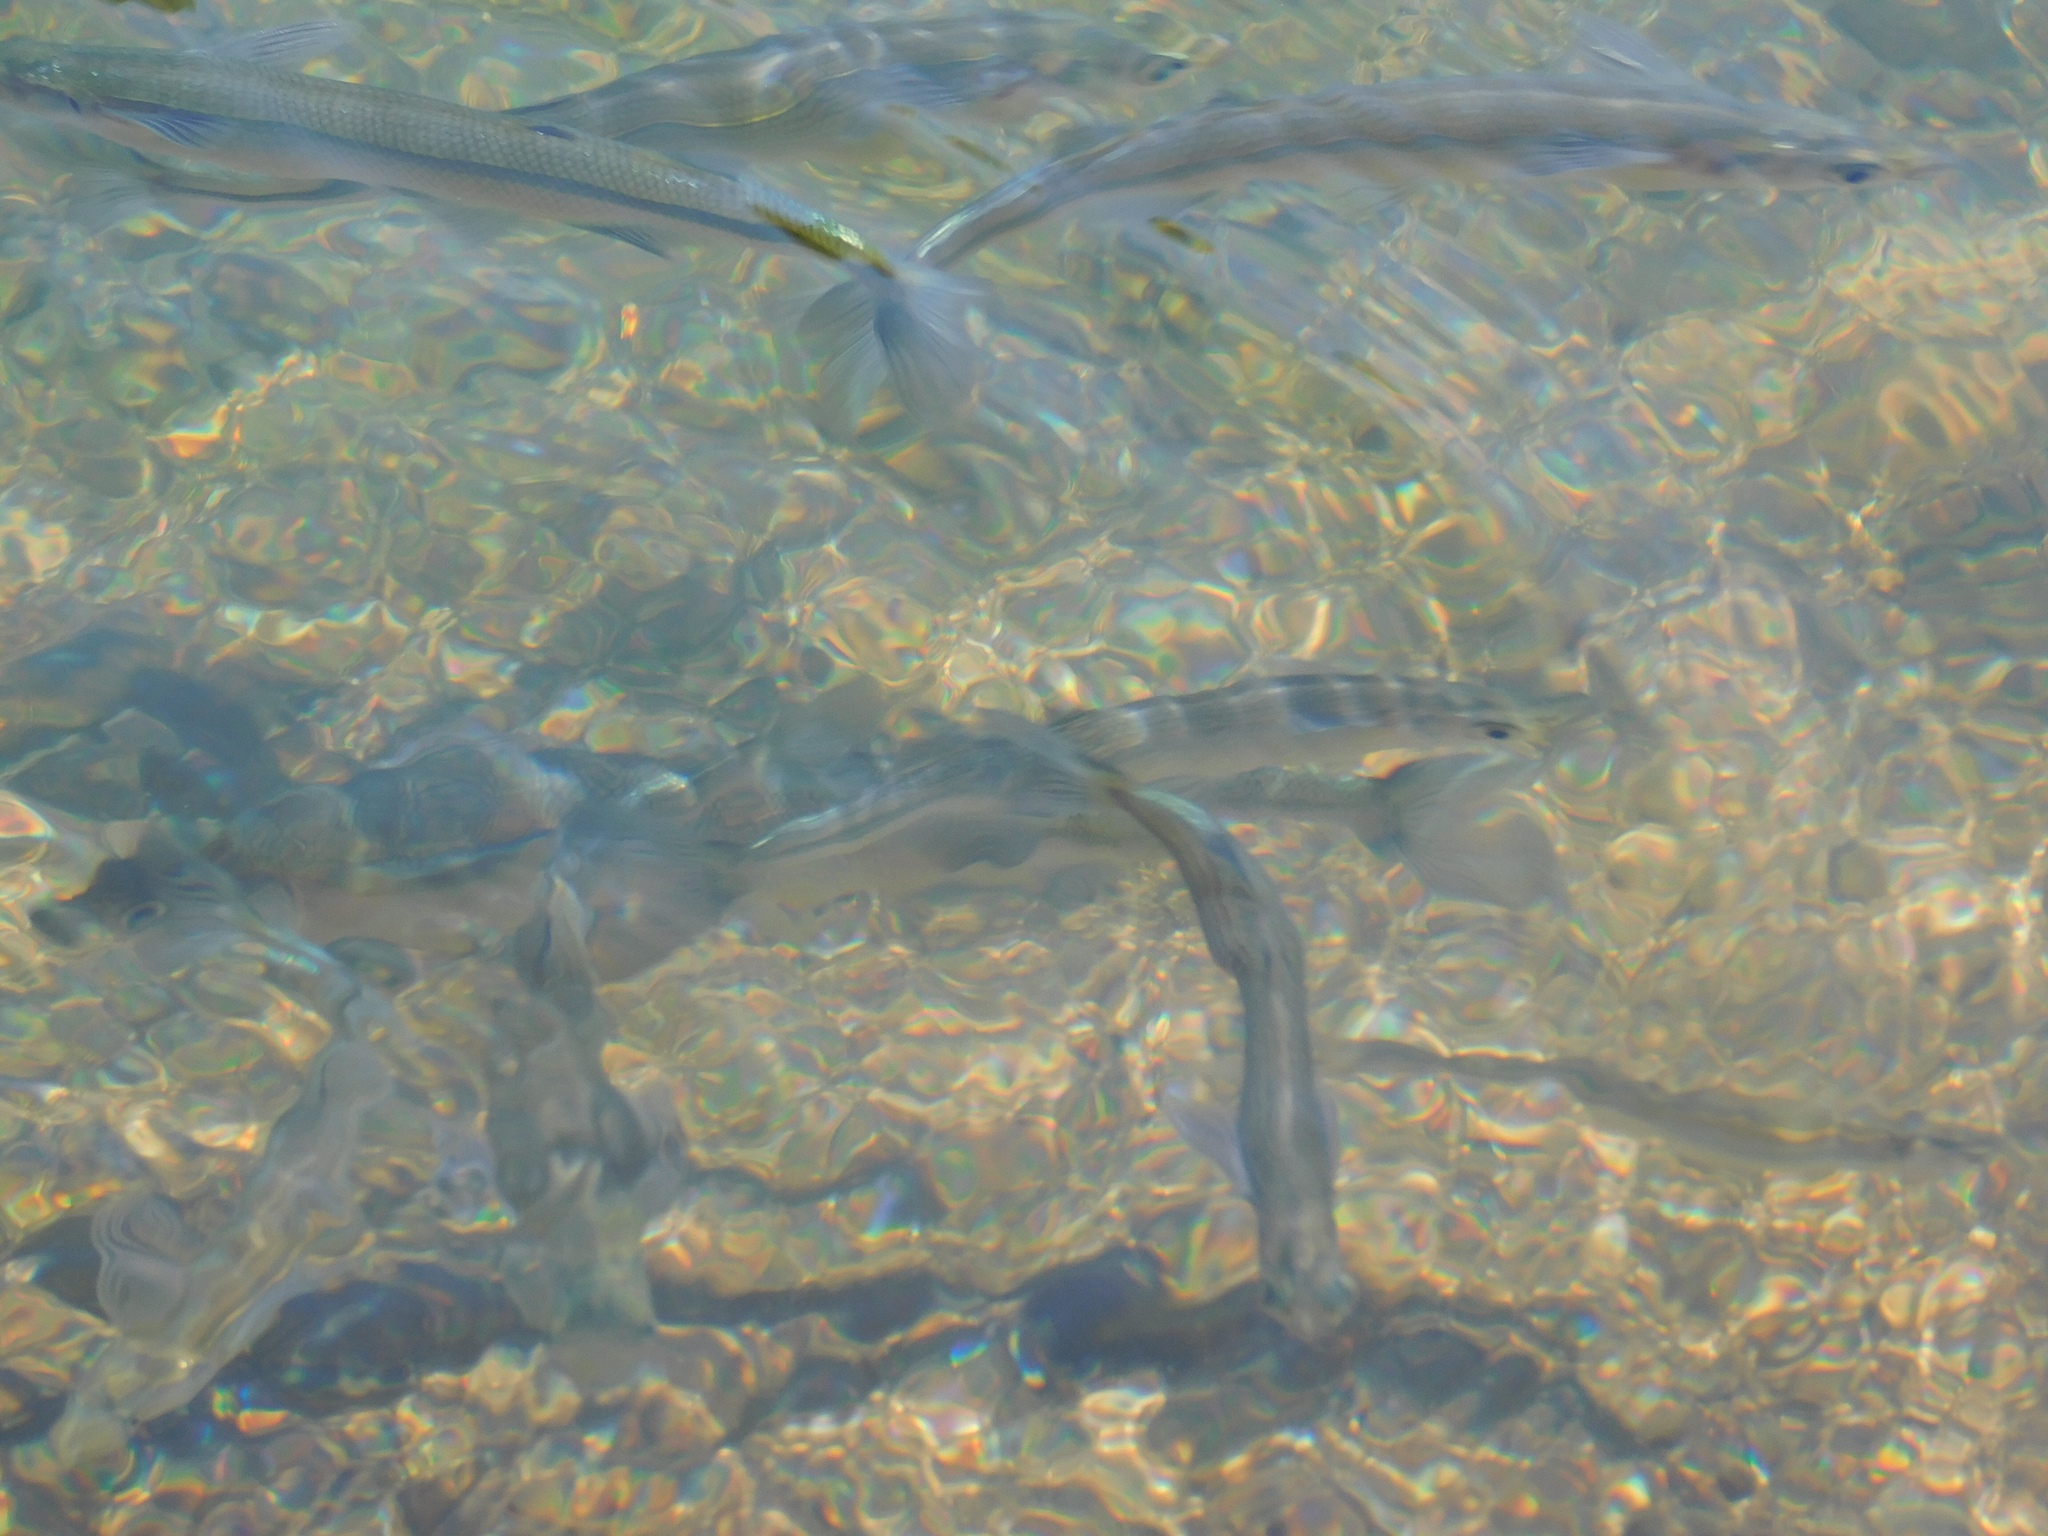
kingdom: Animalia
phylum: Chordata
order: Atheriniformes
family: Atherinopsidae
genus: Odontesthes
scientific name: Odontesthes hatcheri
